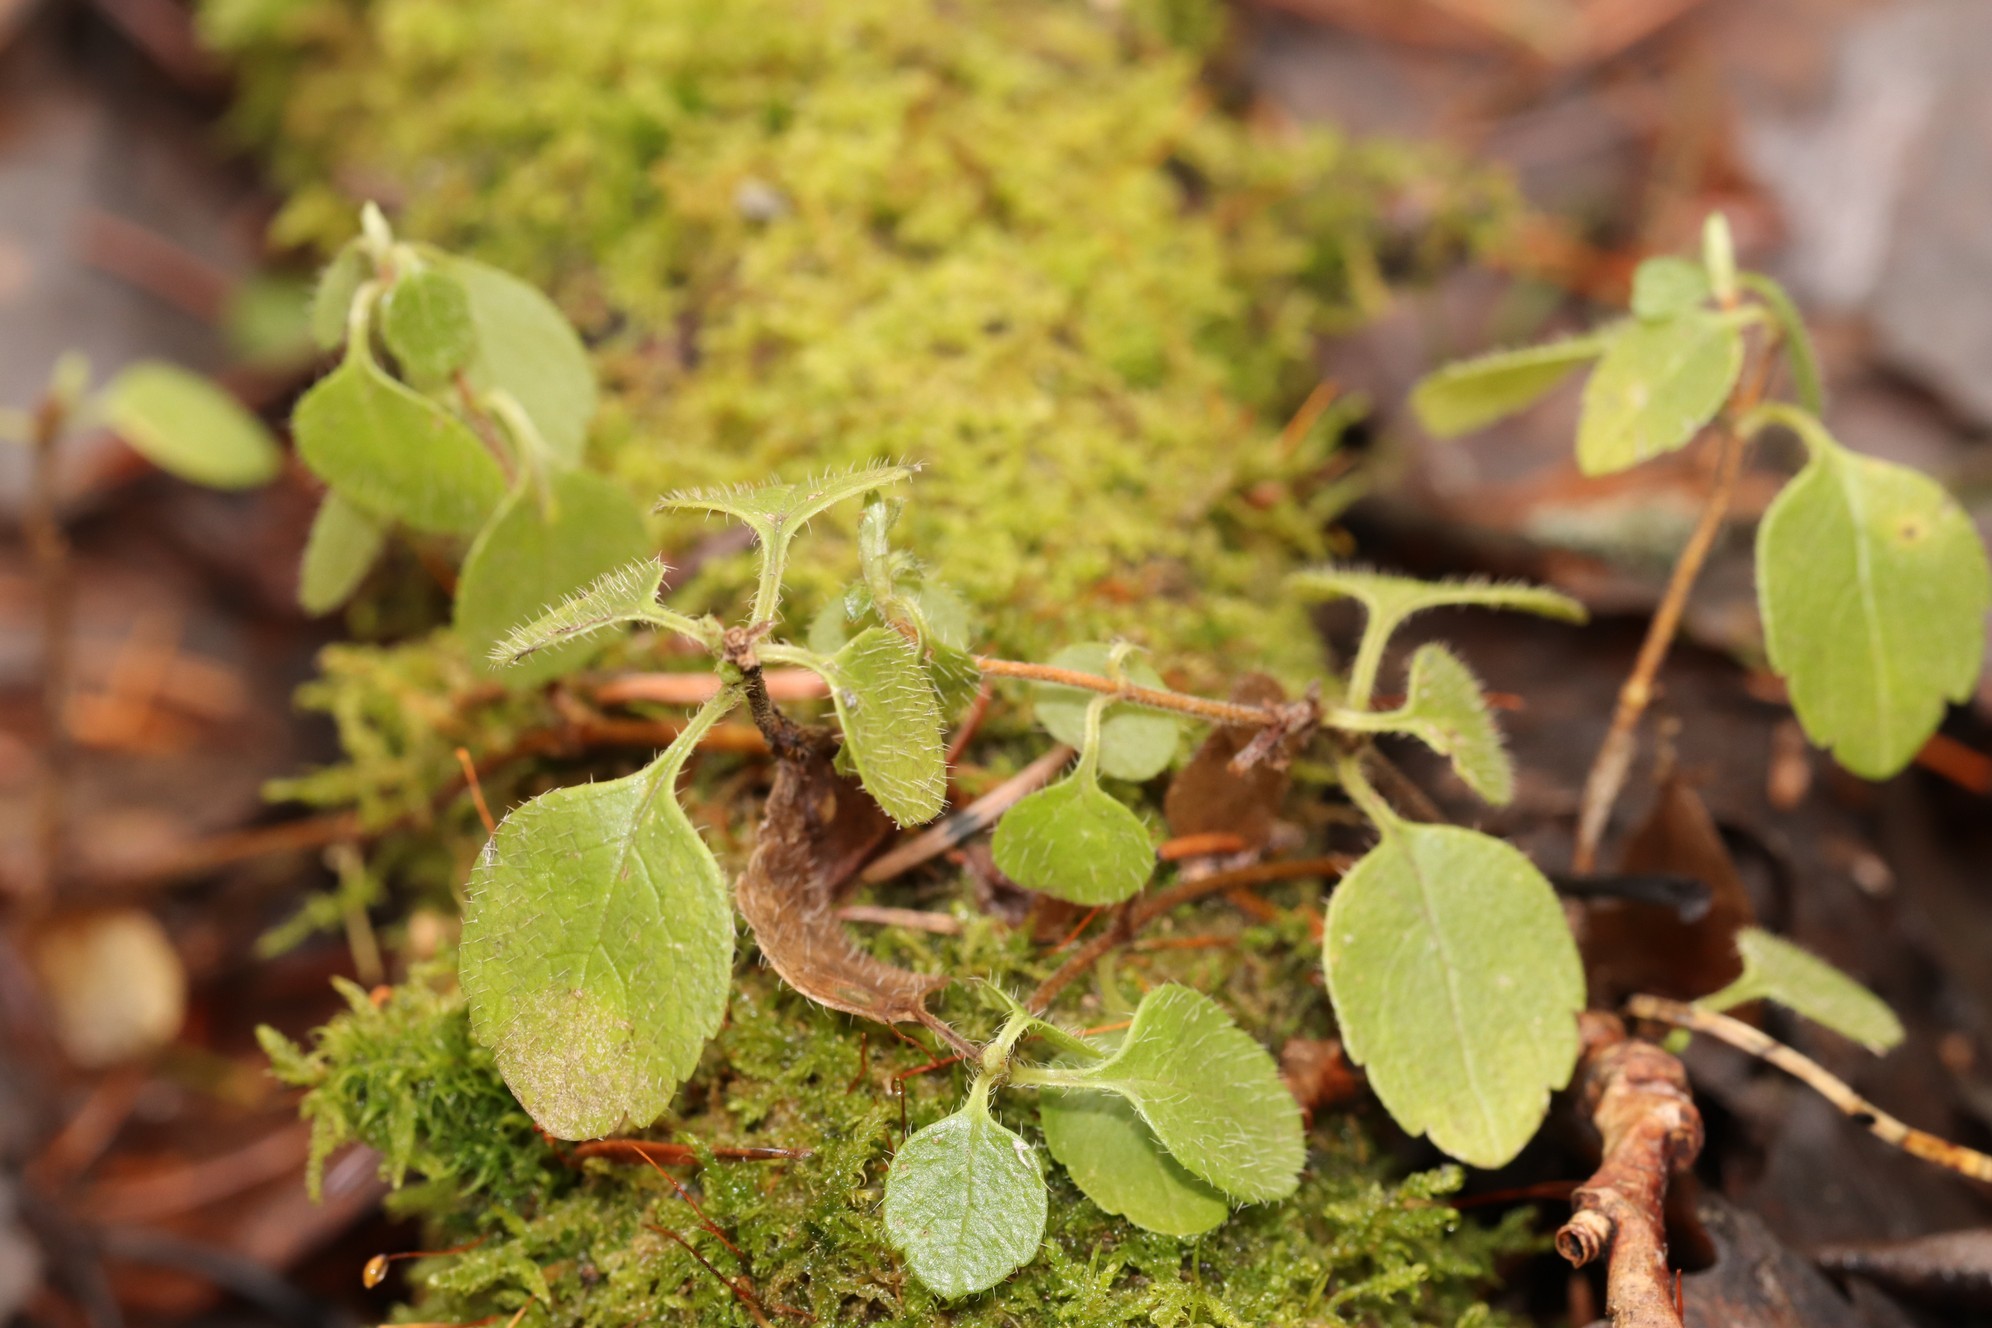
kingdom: Plantae
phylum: Tracheophyta
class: Magnoliopsida
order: Dipsacales
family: Caprifoliaceae
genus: Linnaea
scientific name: Linnaea borealis
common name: Twinflower
